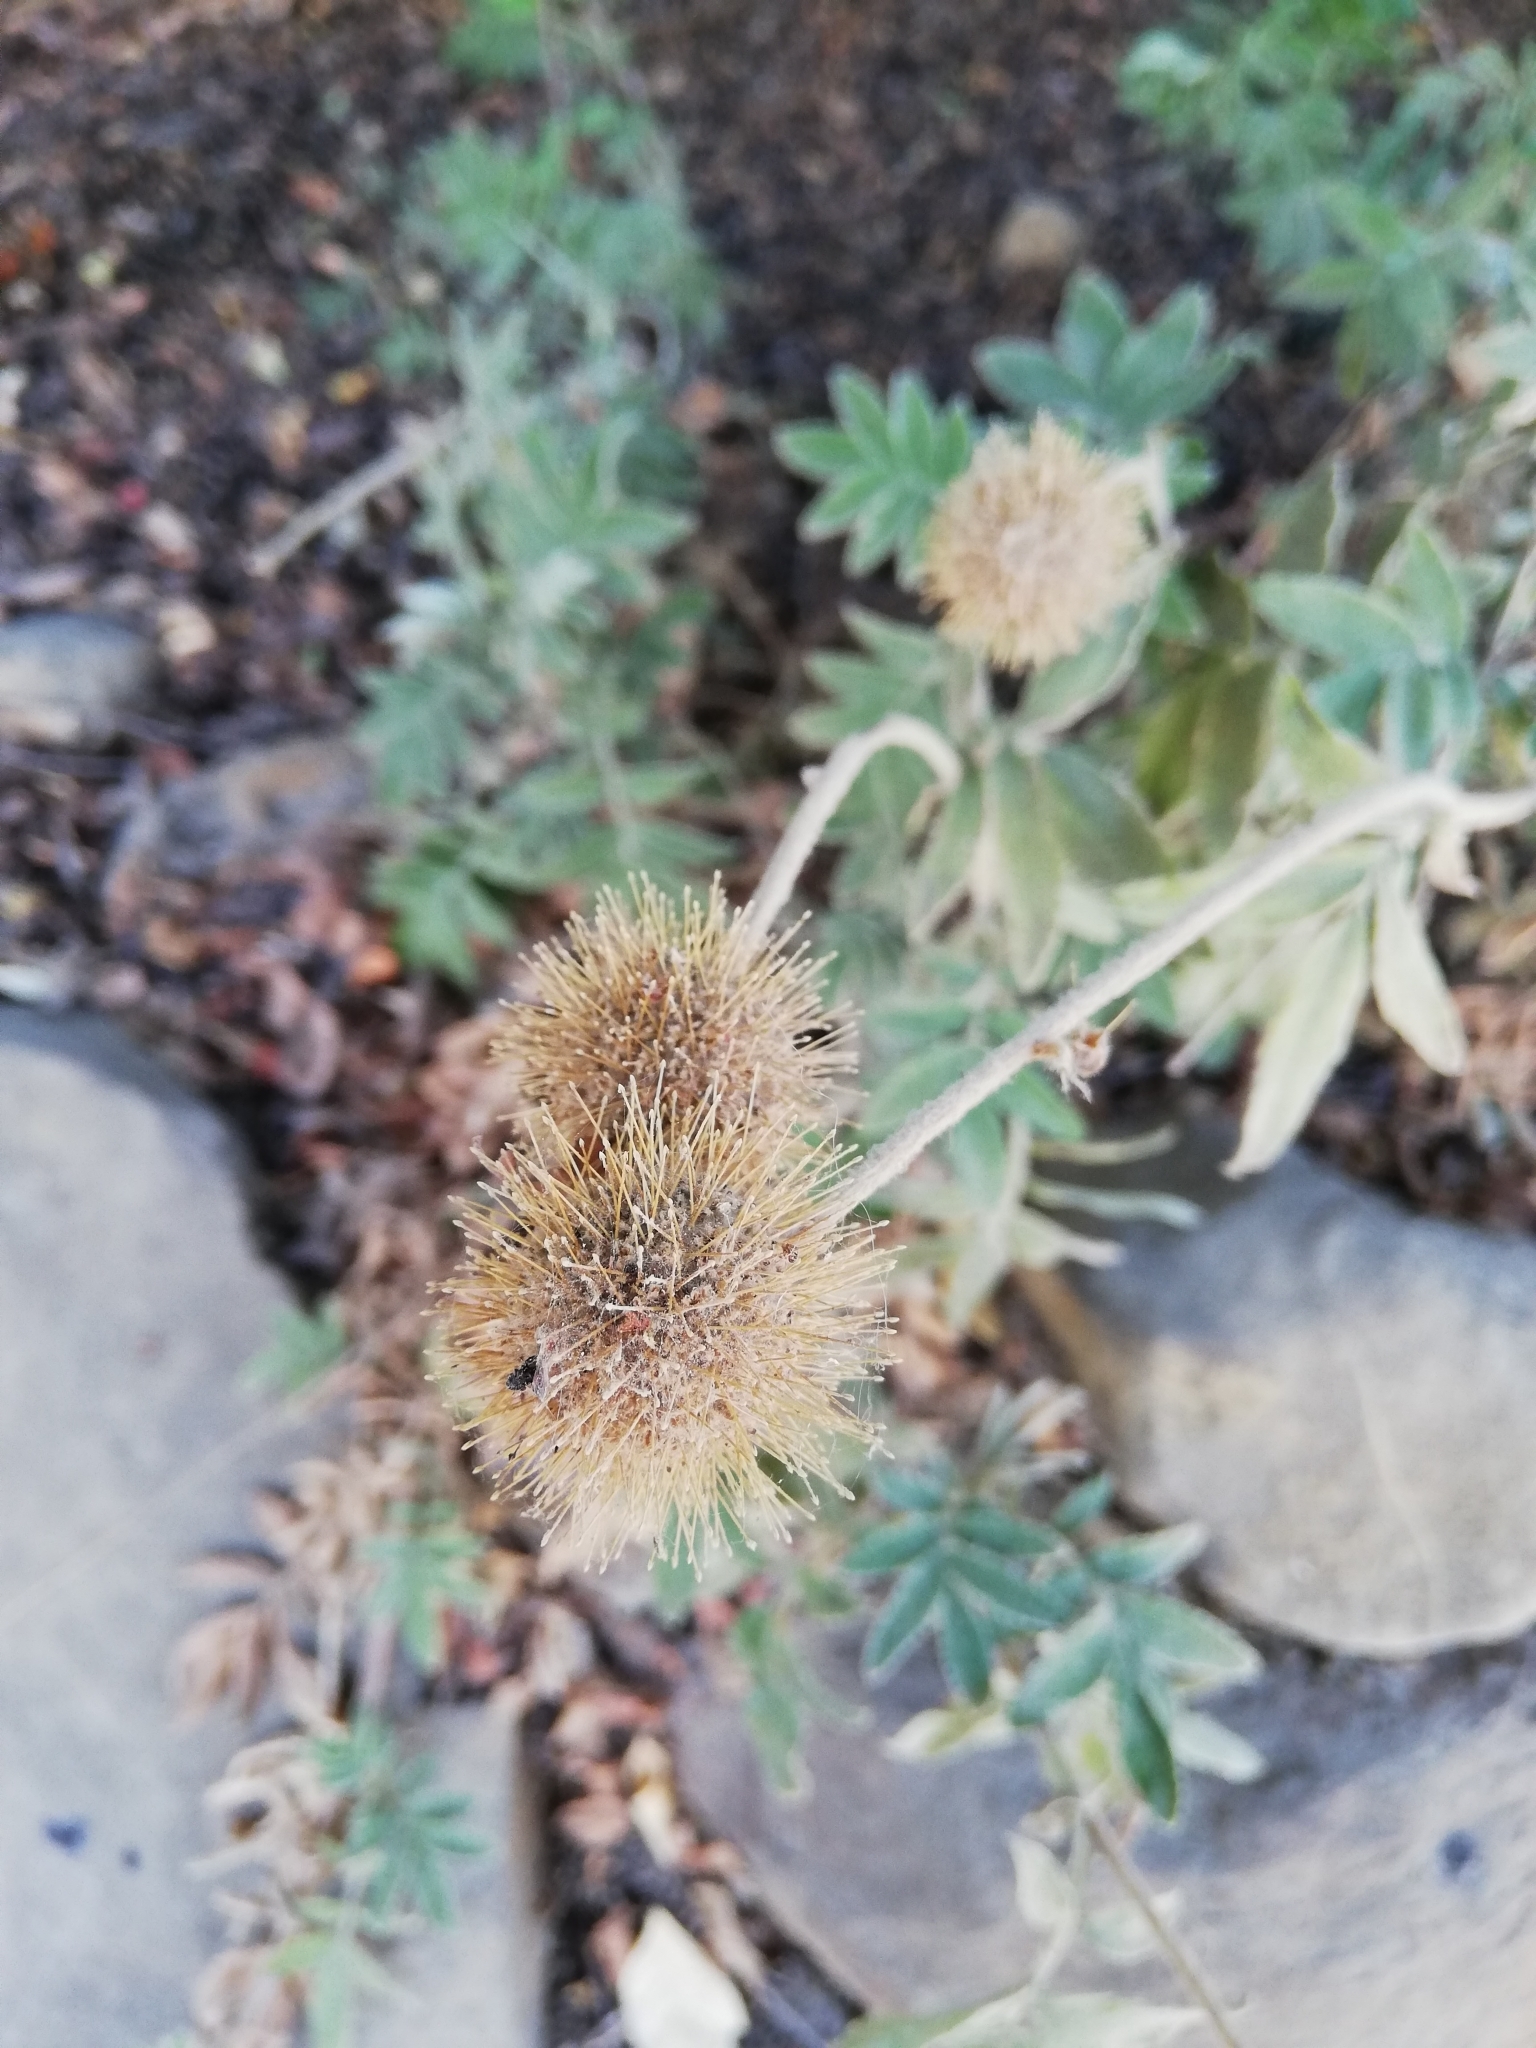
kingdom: Plantae
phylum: Tracheophyta
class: Magnoliopsida
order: Rosales
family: Rosaceae
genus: Acaena
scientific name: Acaena argentea
